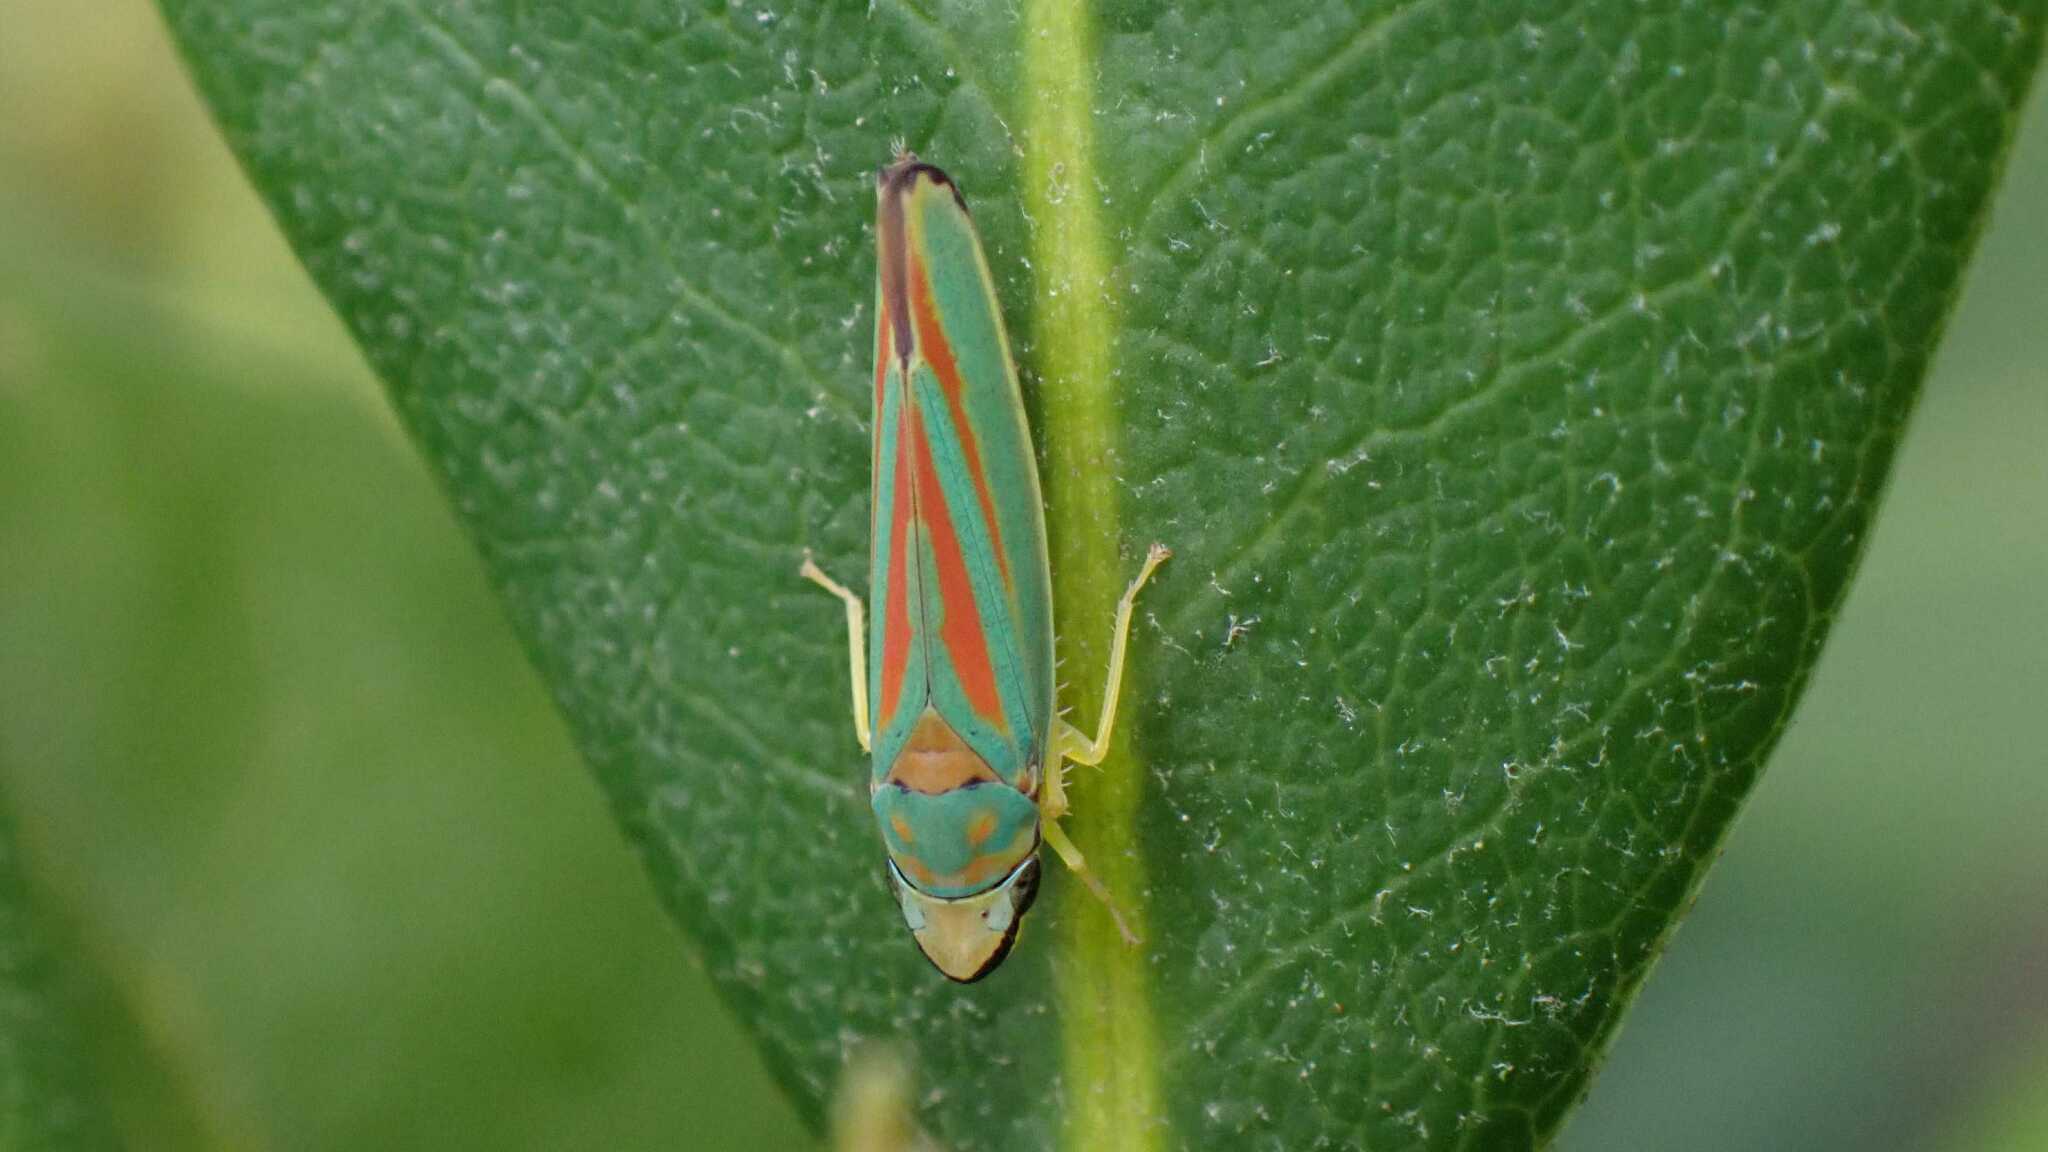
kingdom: Animalia
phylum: Arthropoda
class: Insecta
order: Hemiptera
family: Cicadellidae
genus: Graphocephala
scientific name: Graphocephala fennahi
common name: Rhododendron leafhopper
